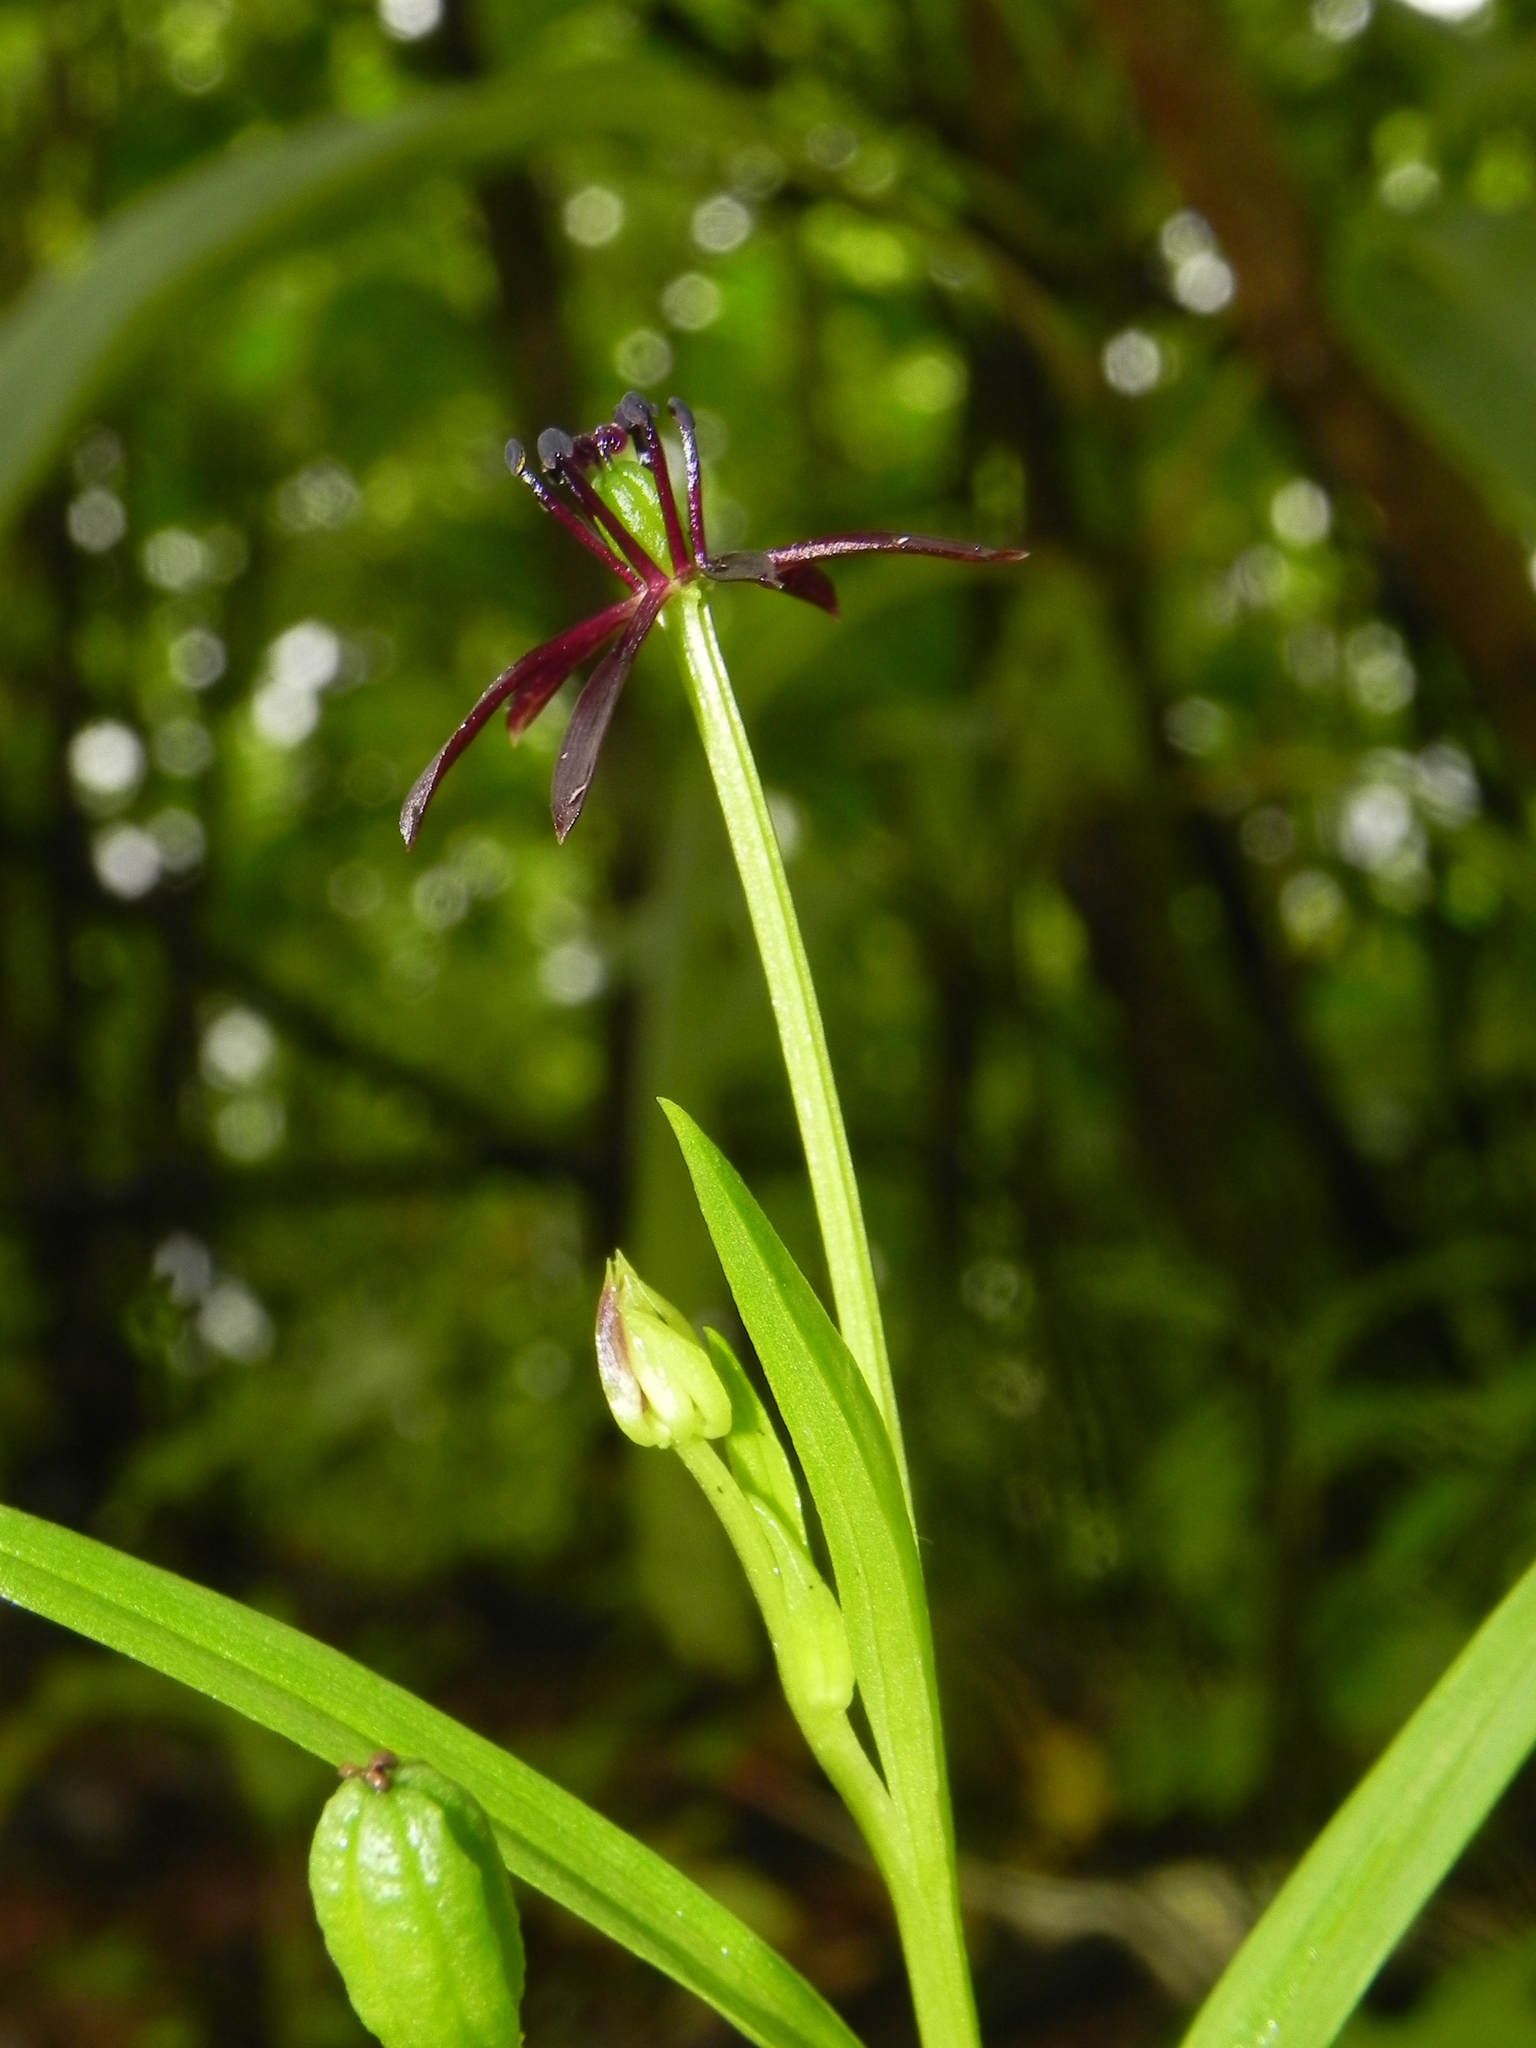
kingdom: Plantae
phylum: Tracheophyta
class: Liliopsida
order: Liliales
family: Colchicaceae
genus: Iphigenia
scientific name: Iphigenia magnifica
